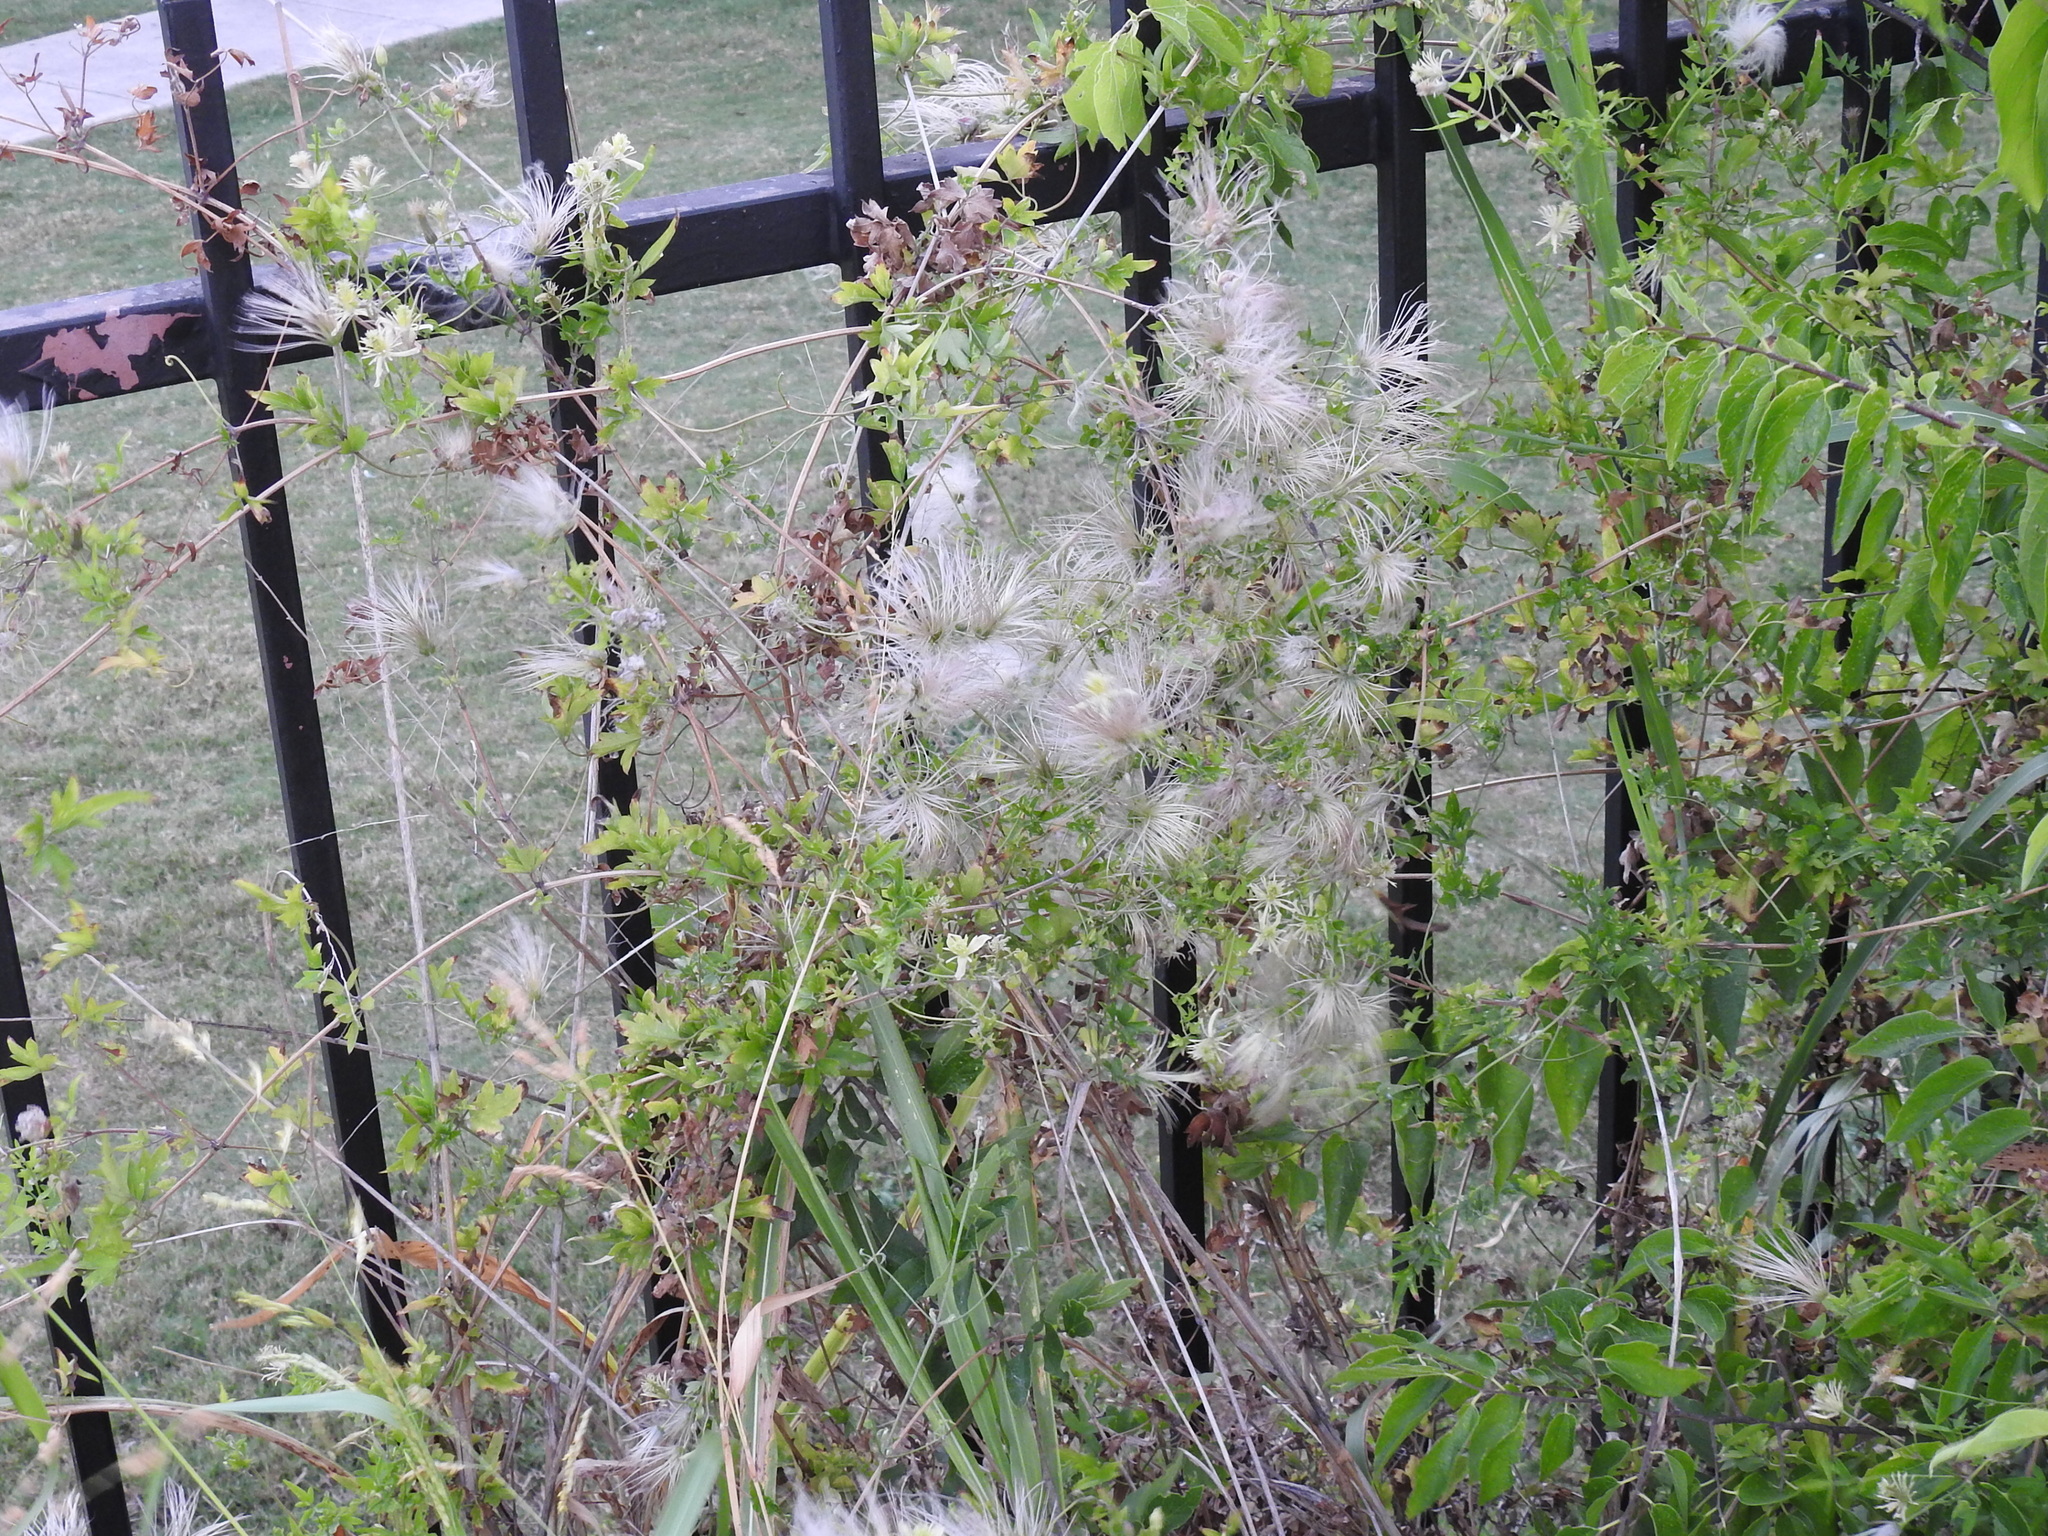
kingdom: Plantae
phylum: Tracheophyta
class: Magnoliopsida
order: Ranunculales
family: Ranunculaceae
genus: Clematis
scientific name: Clematis drummondii
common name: Texas virgin's bower
